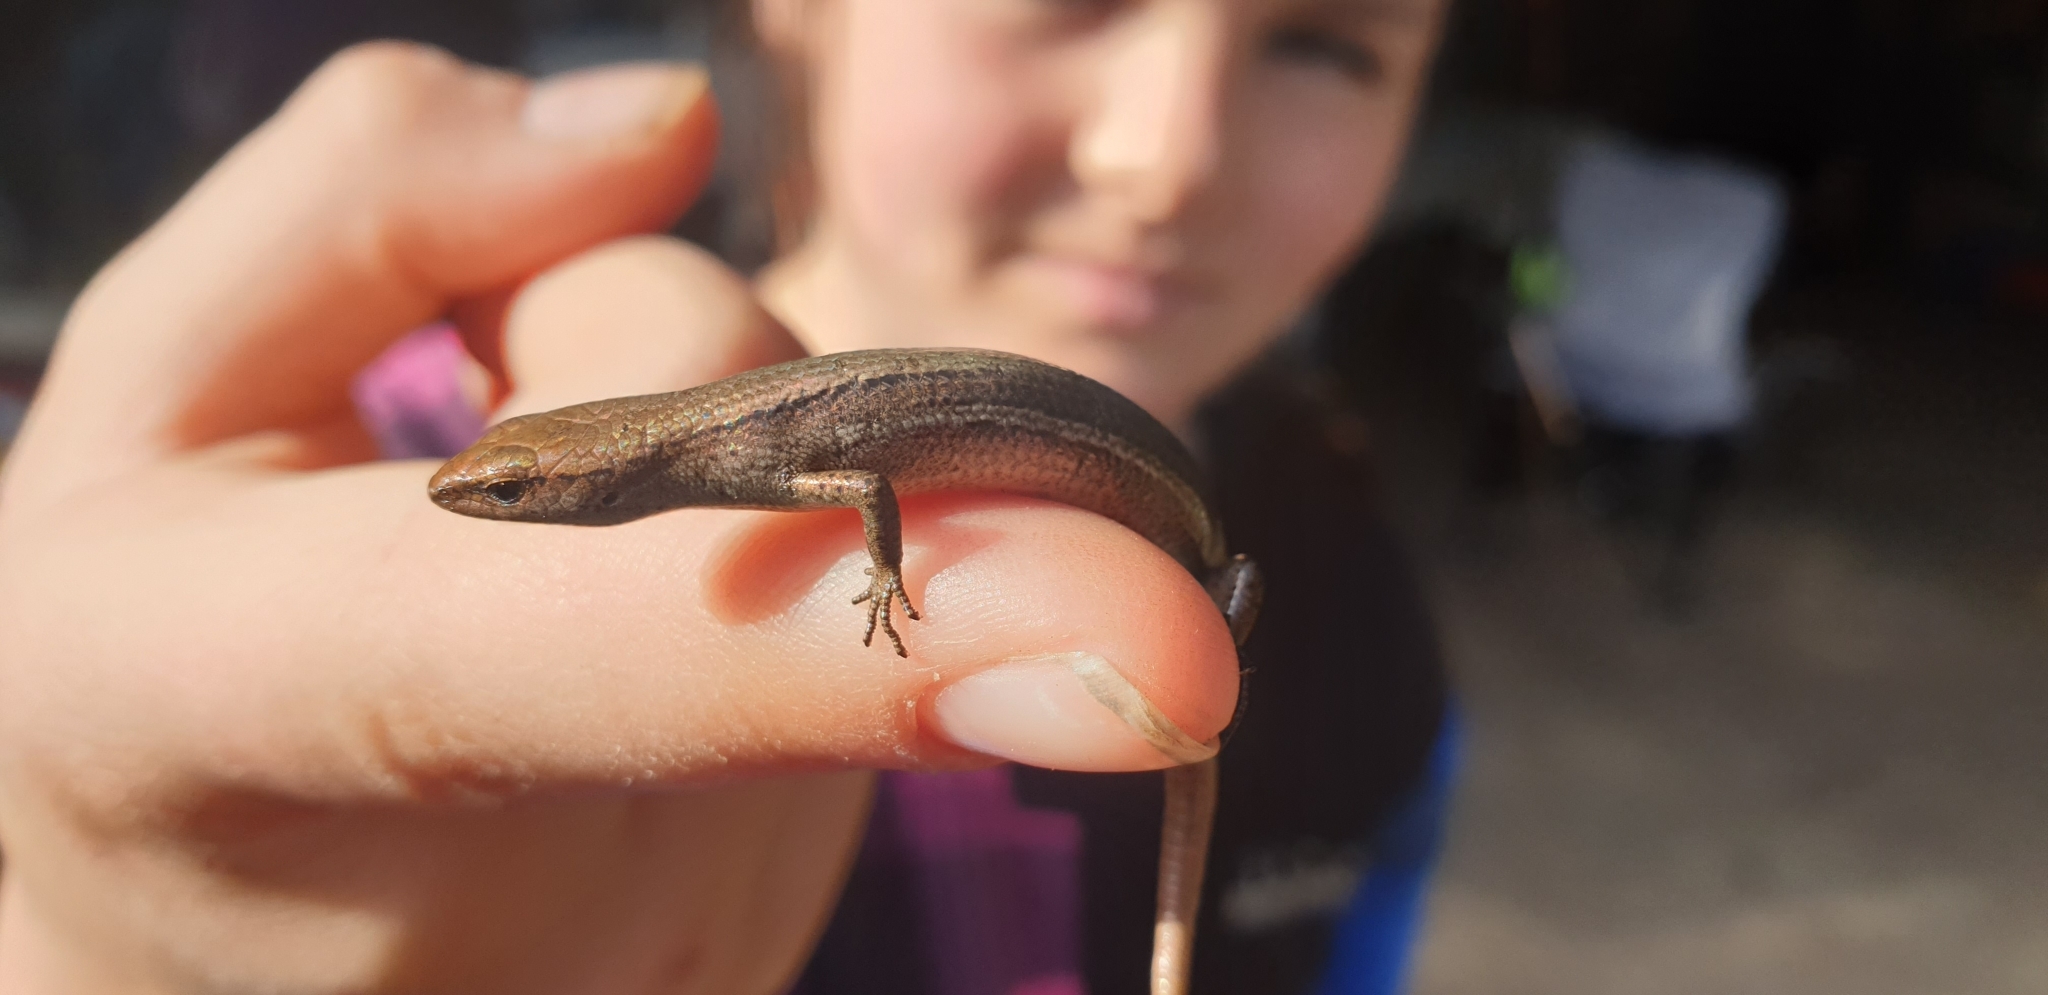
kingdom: Animalia
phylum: Chordata
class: Squamata
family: Scincidae
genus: Lampropholis
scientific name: Lampropholis delicata
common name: Plague skink
